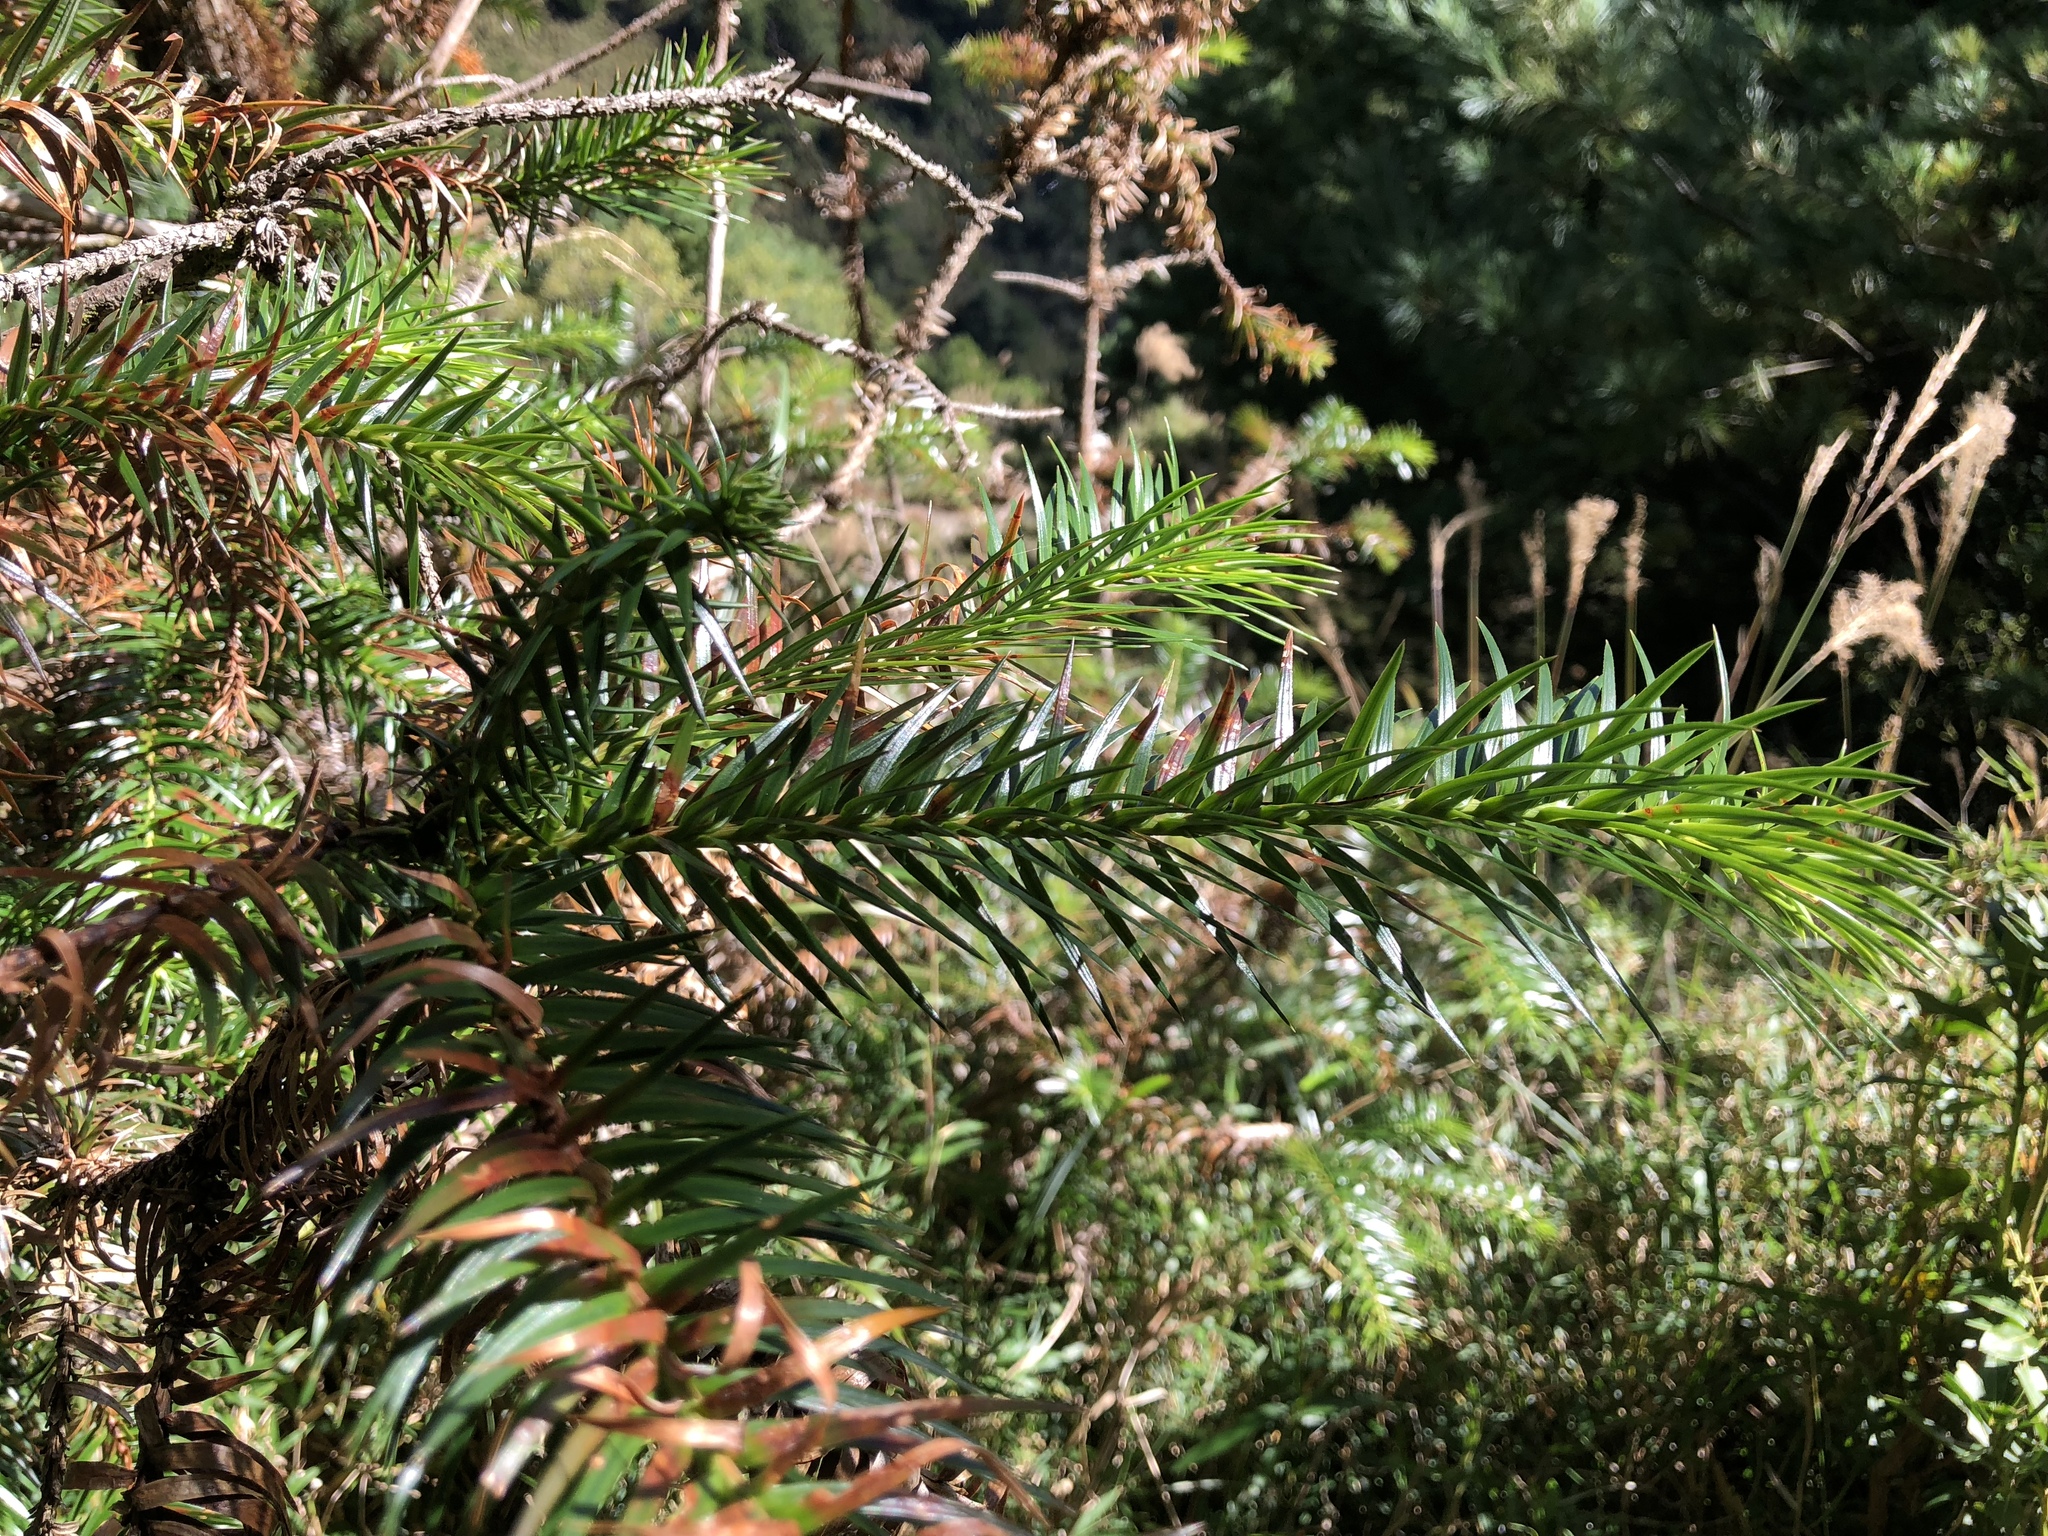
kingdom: Plantae
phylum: Tracheophyta
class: Pinopsida
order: Pinales
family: Cupressaceae
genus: Cunninghamia
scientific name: Cunninghamia lanceolata
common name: Chinese fir
